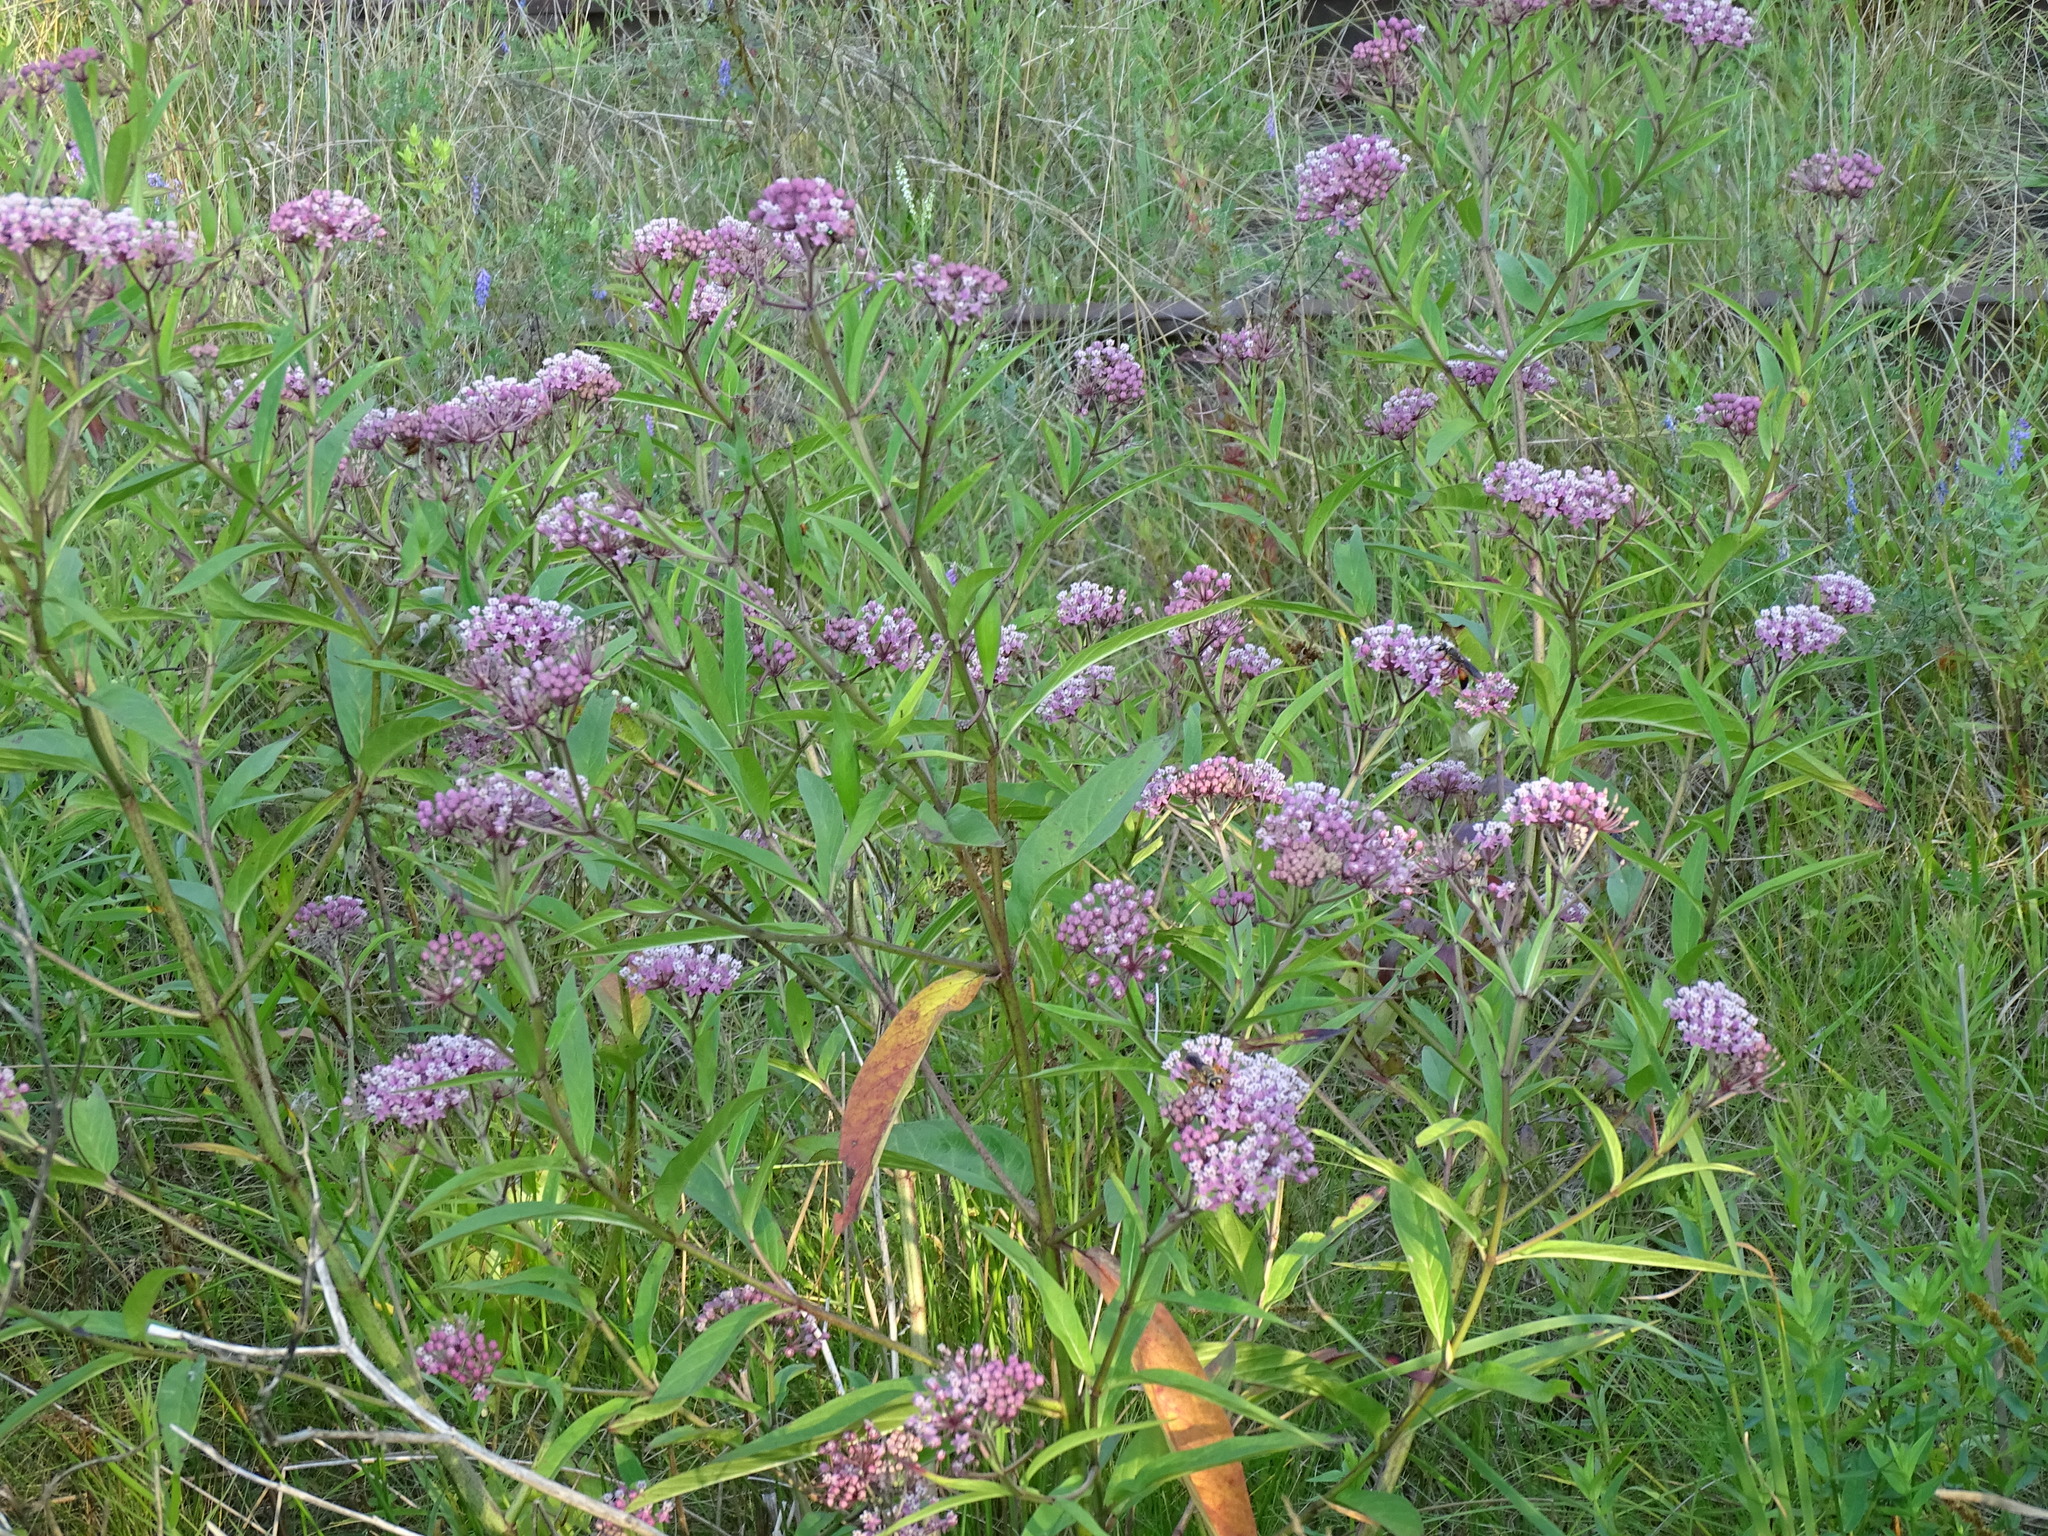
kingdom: Plantae
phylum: Tracheophyta
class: Magnoliopsida
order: Gentianales
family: Apocynaceae
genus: Asclepias
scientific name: Asclepias incarnata
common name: Swamp milkweed
